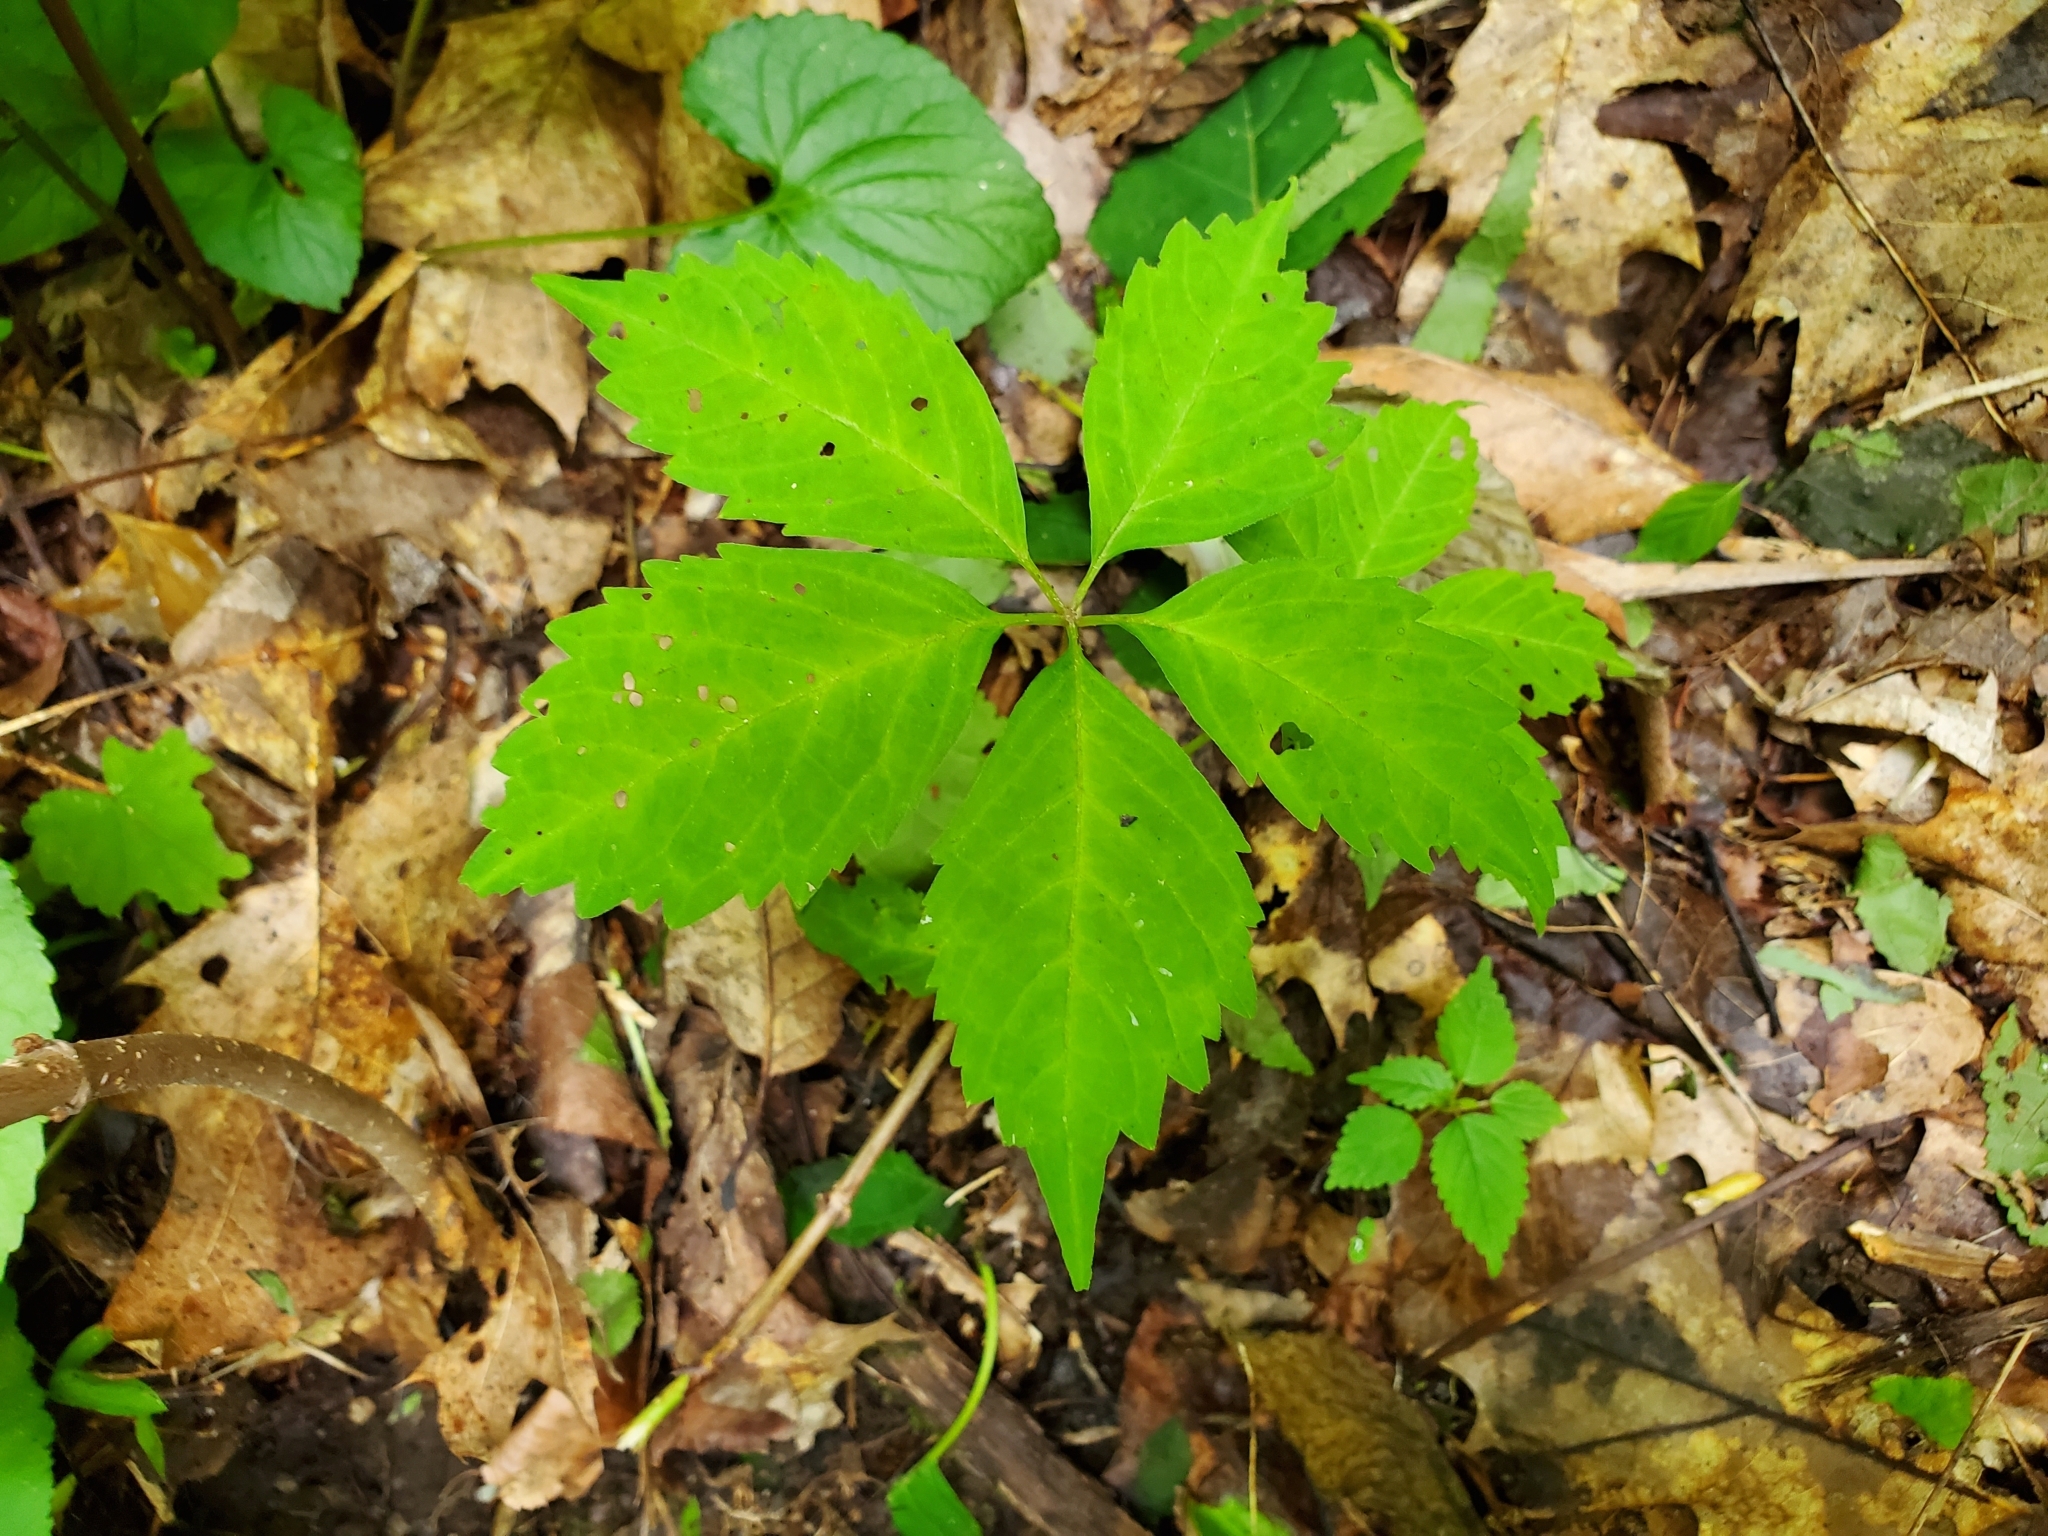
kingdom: Plantae
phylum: Tracheophyta
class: Magnoliopsida
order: Vitales
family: Vitaceae
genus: Parthenocissus
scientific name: Parthenocissus quinquefolia
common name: Virginia-creeper
